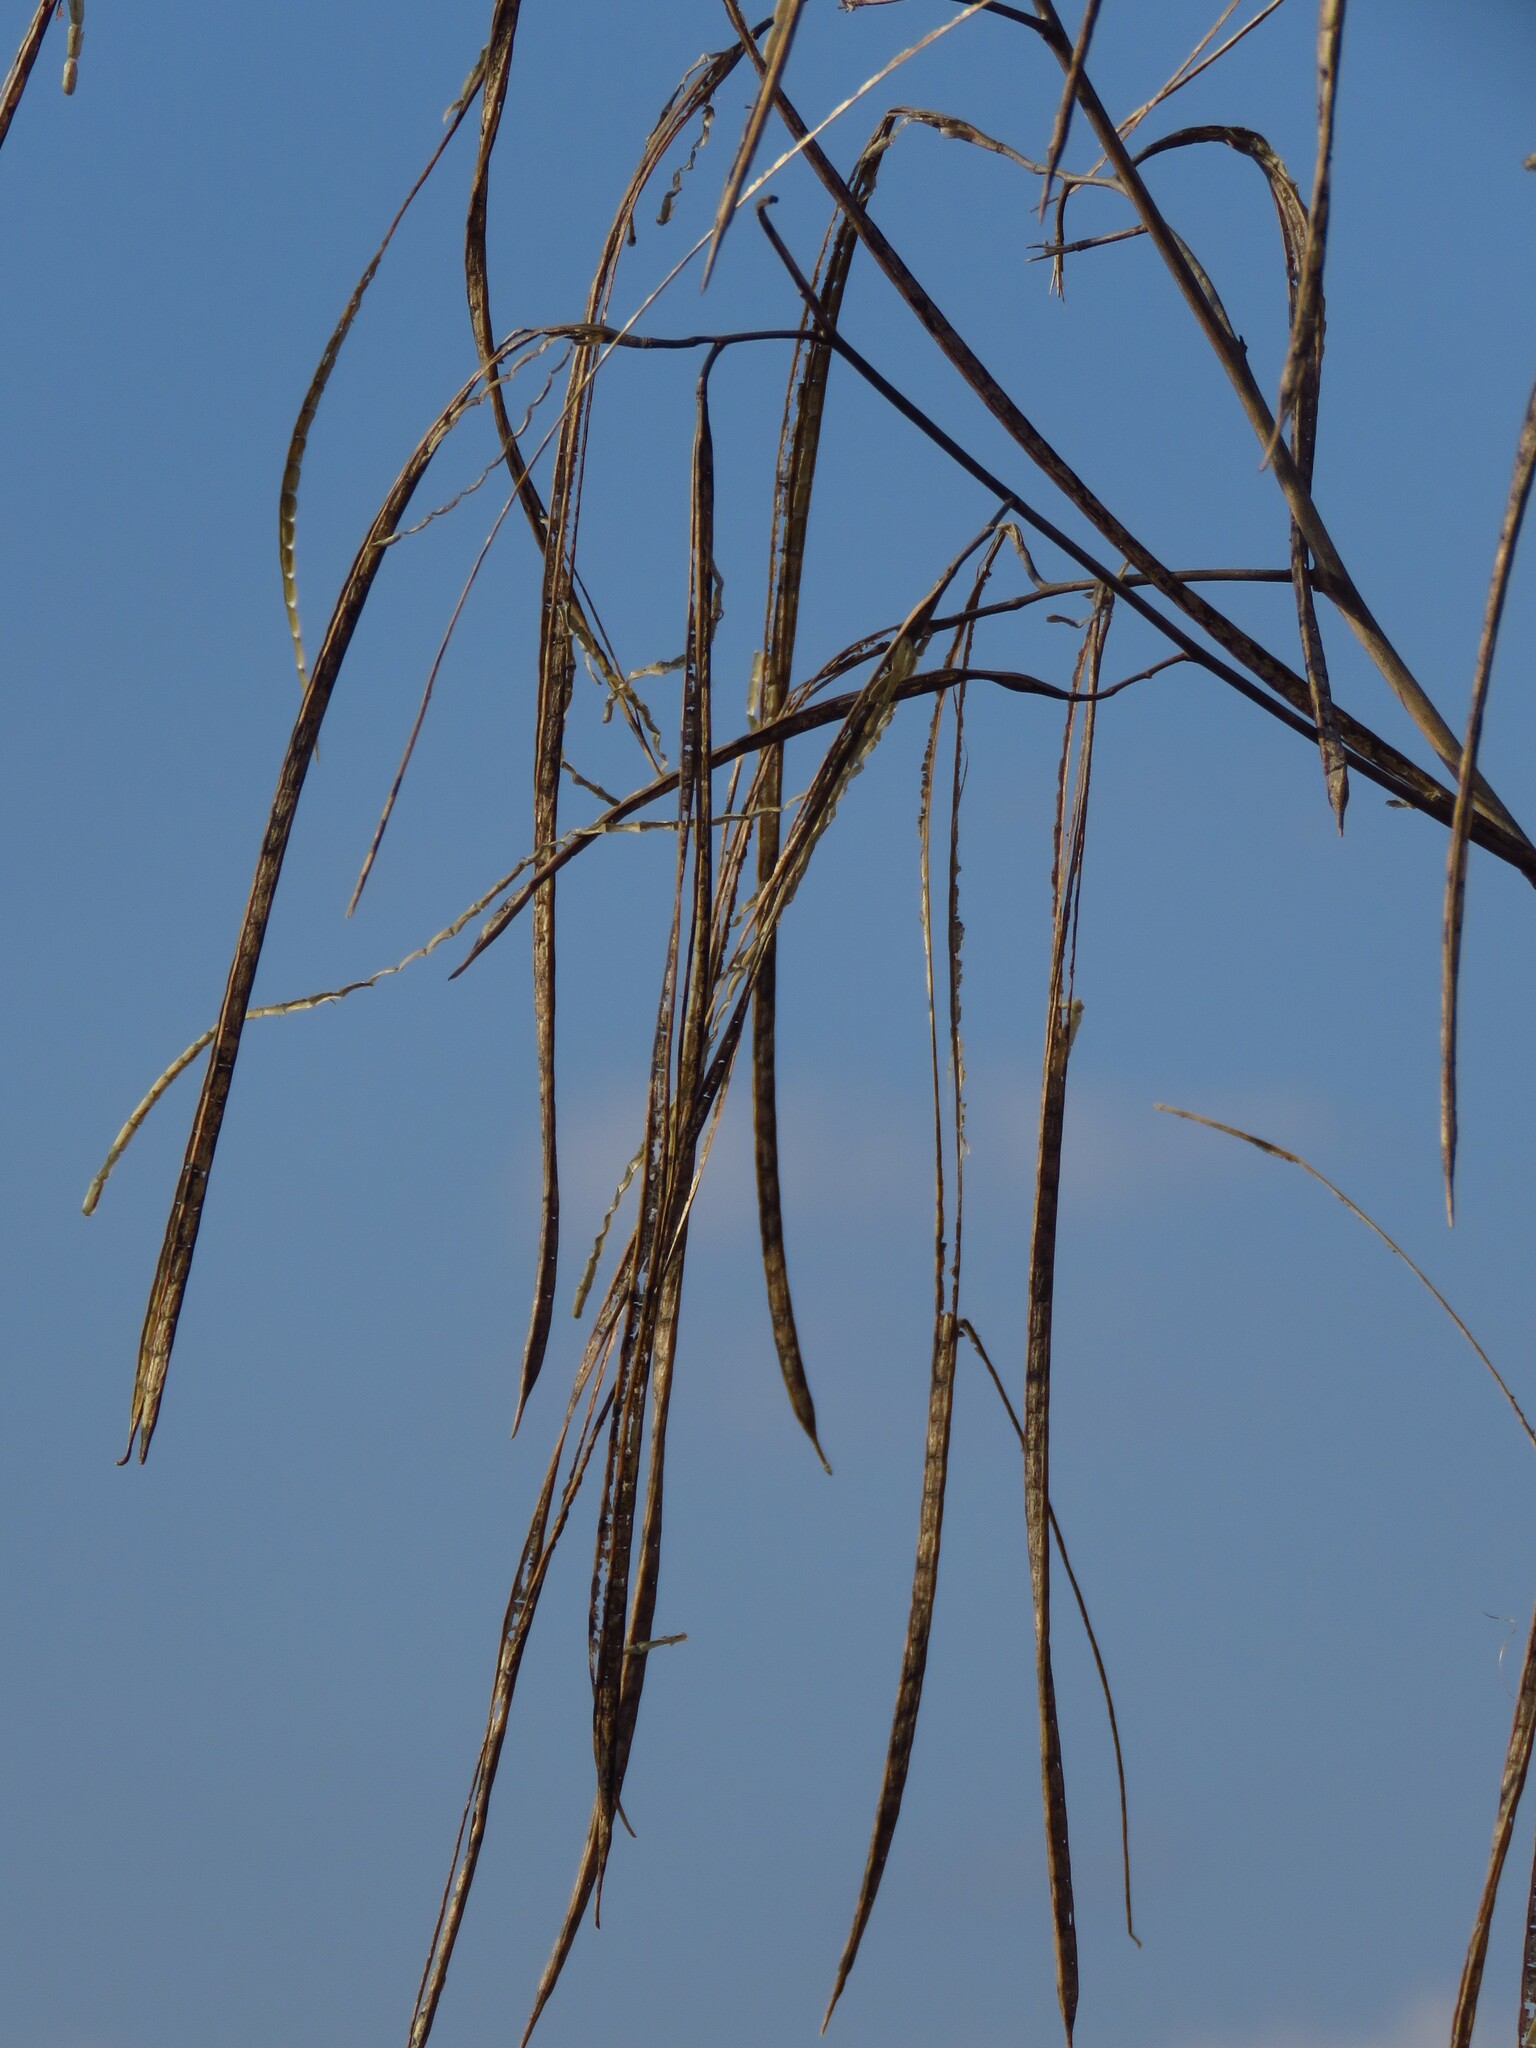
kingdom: Plantae
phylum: Tracheophyta
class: Magnoliopsida
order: Fabales
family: Fabaceae
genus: Sesbania
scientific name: Sesbania herbacea
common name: Bigpod sesbania
